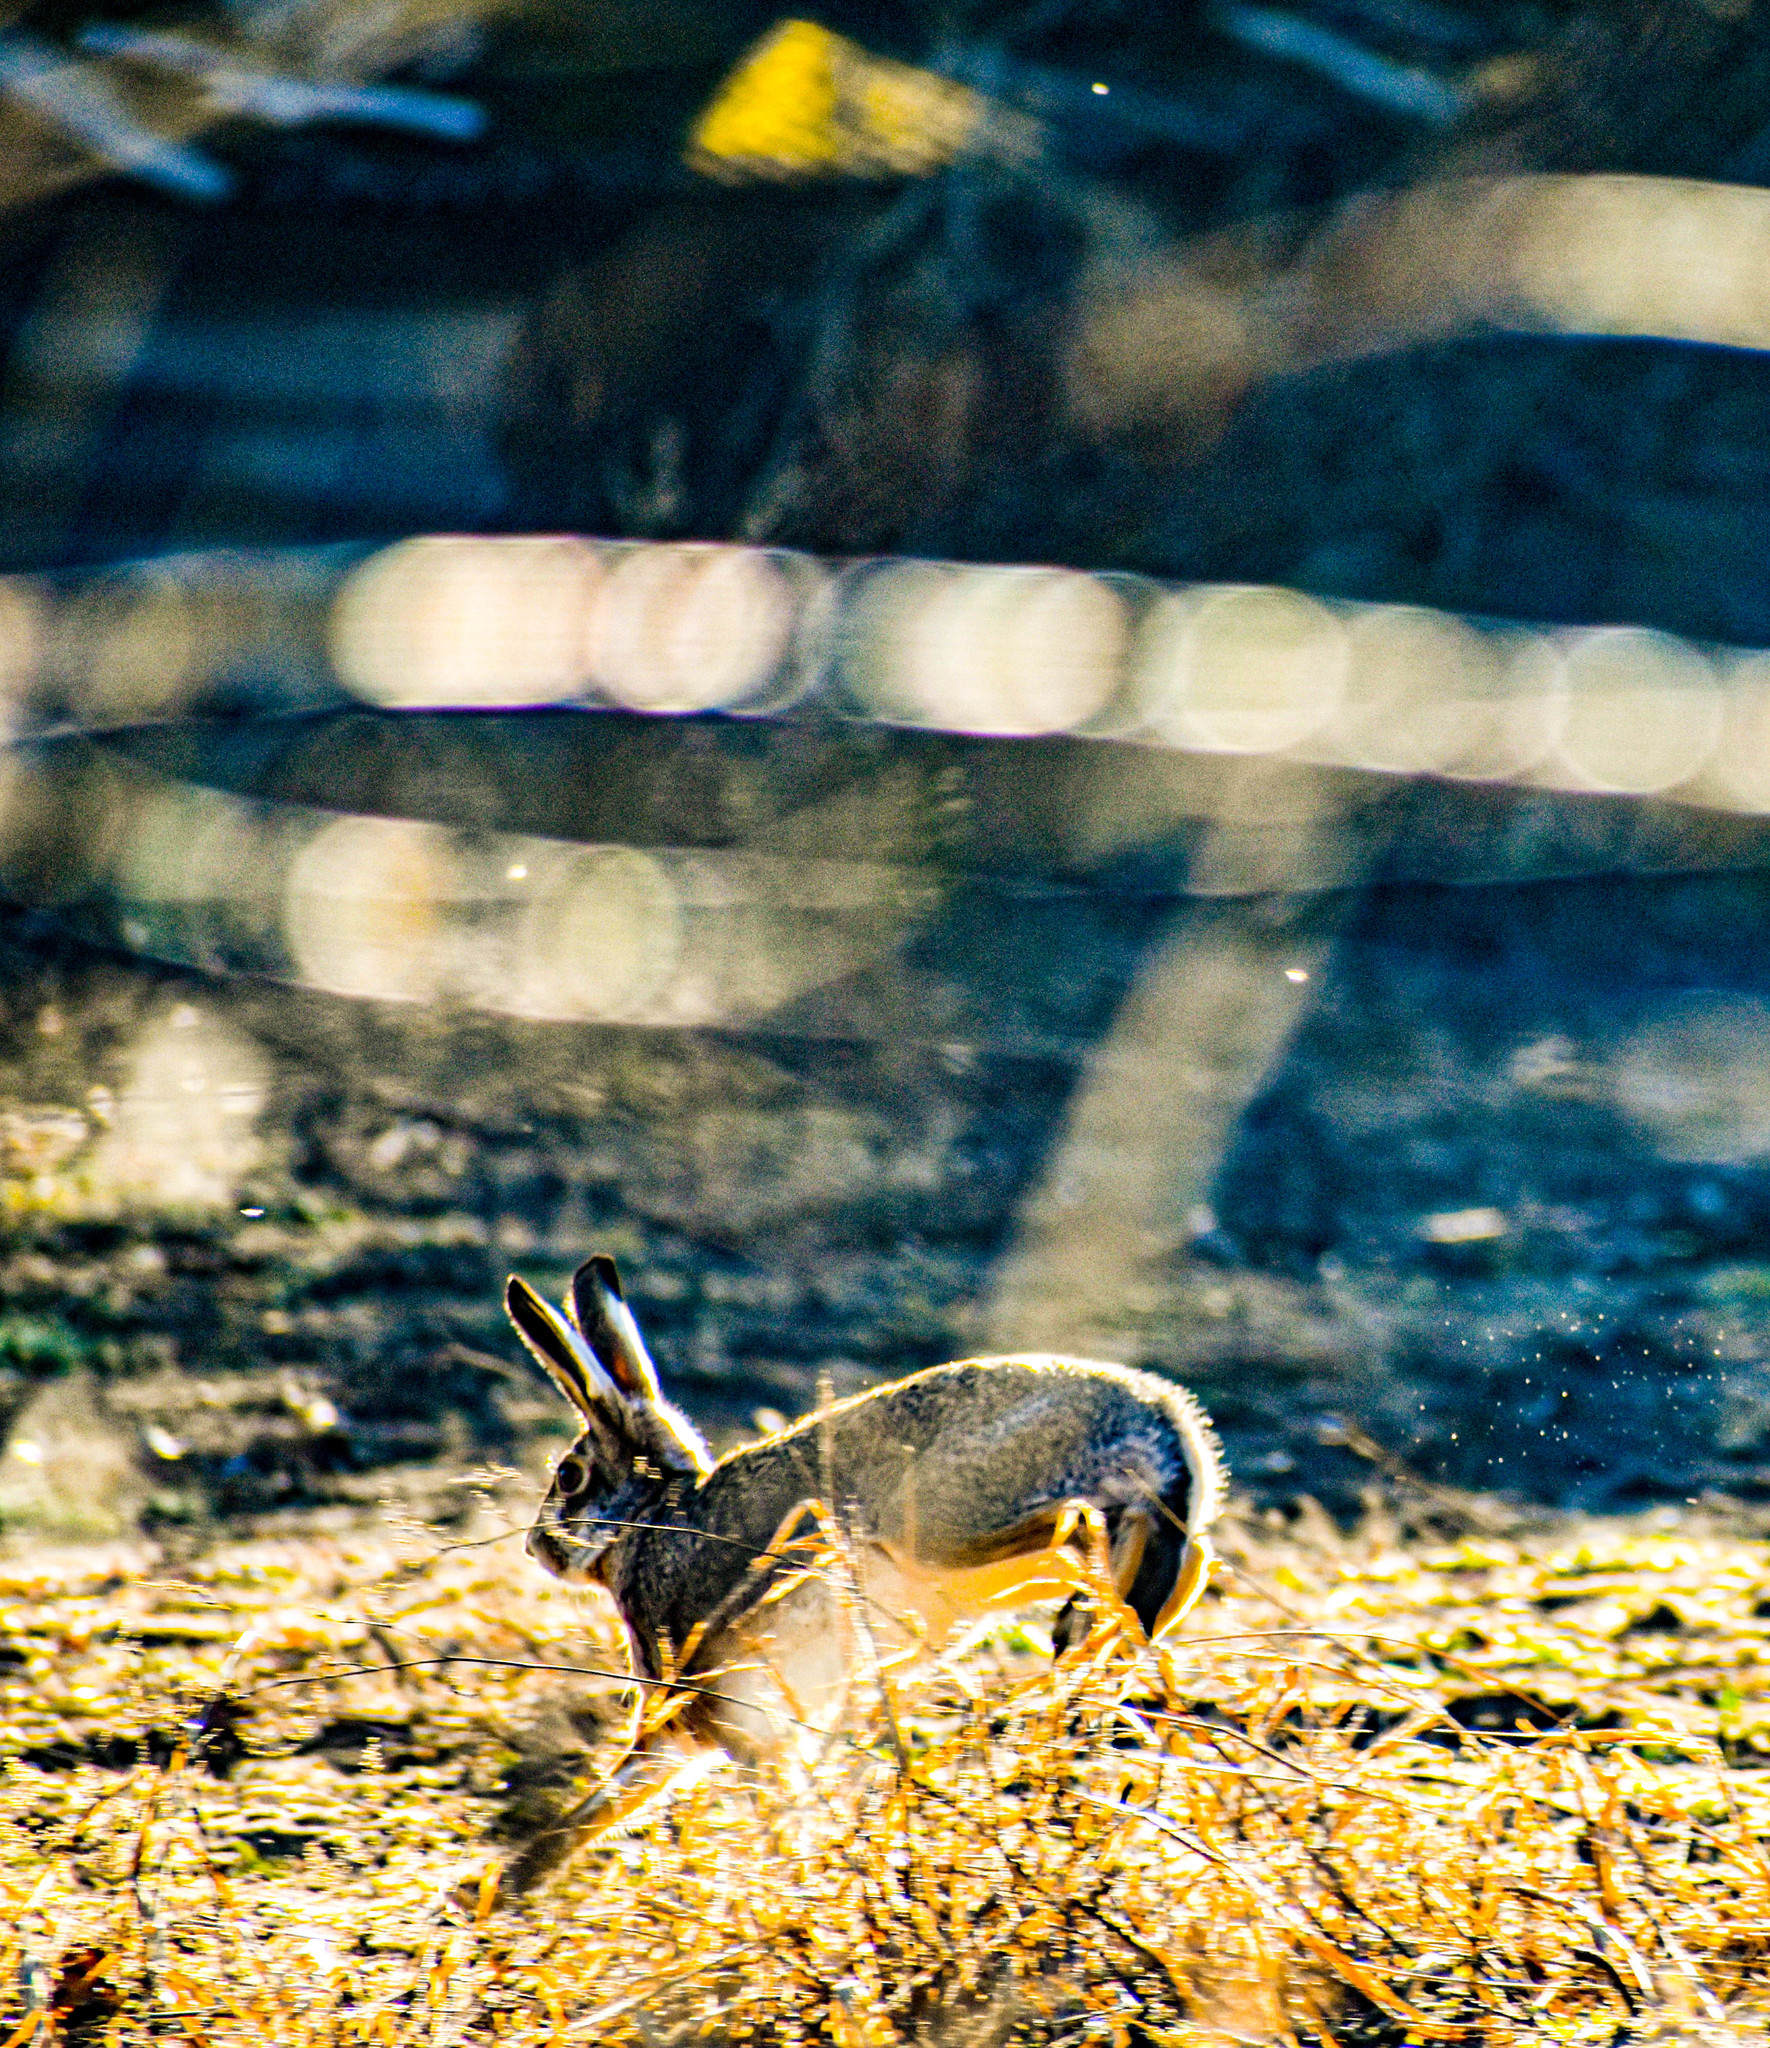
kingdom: Animalia
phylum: Chordata
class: Mammalia
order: Lagomorpha
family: Leporidae
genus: Lepus
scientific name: Lepus europaeus
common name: European hare
